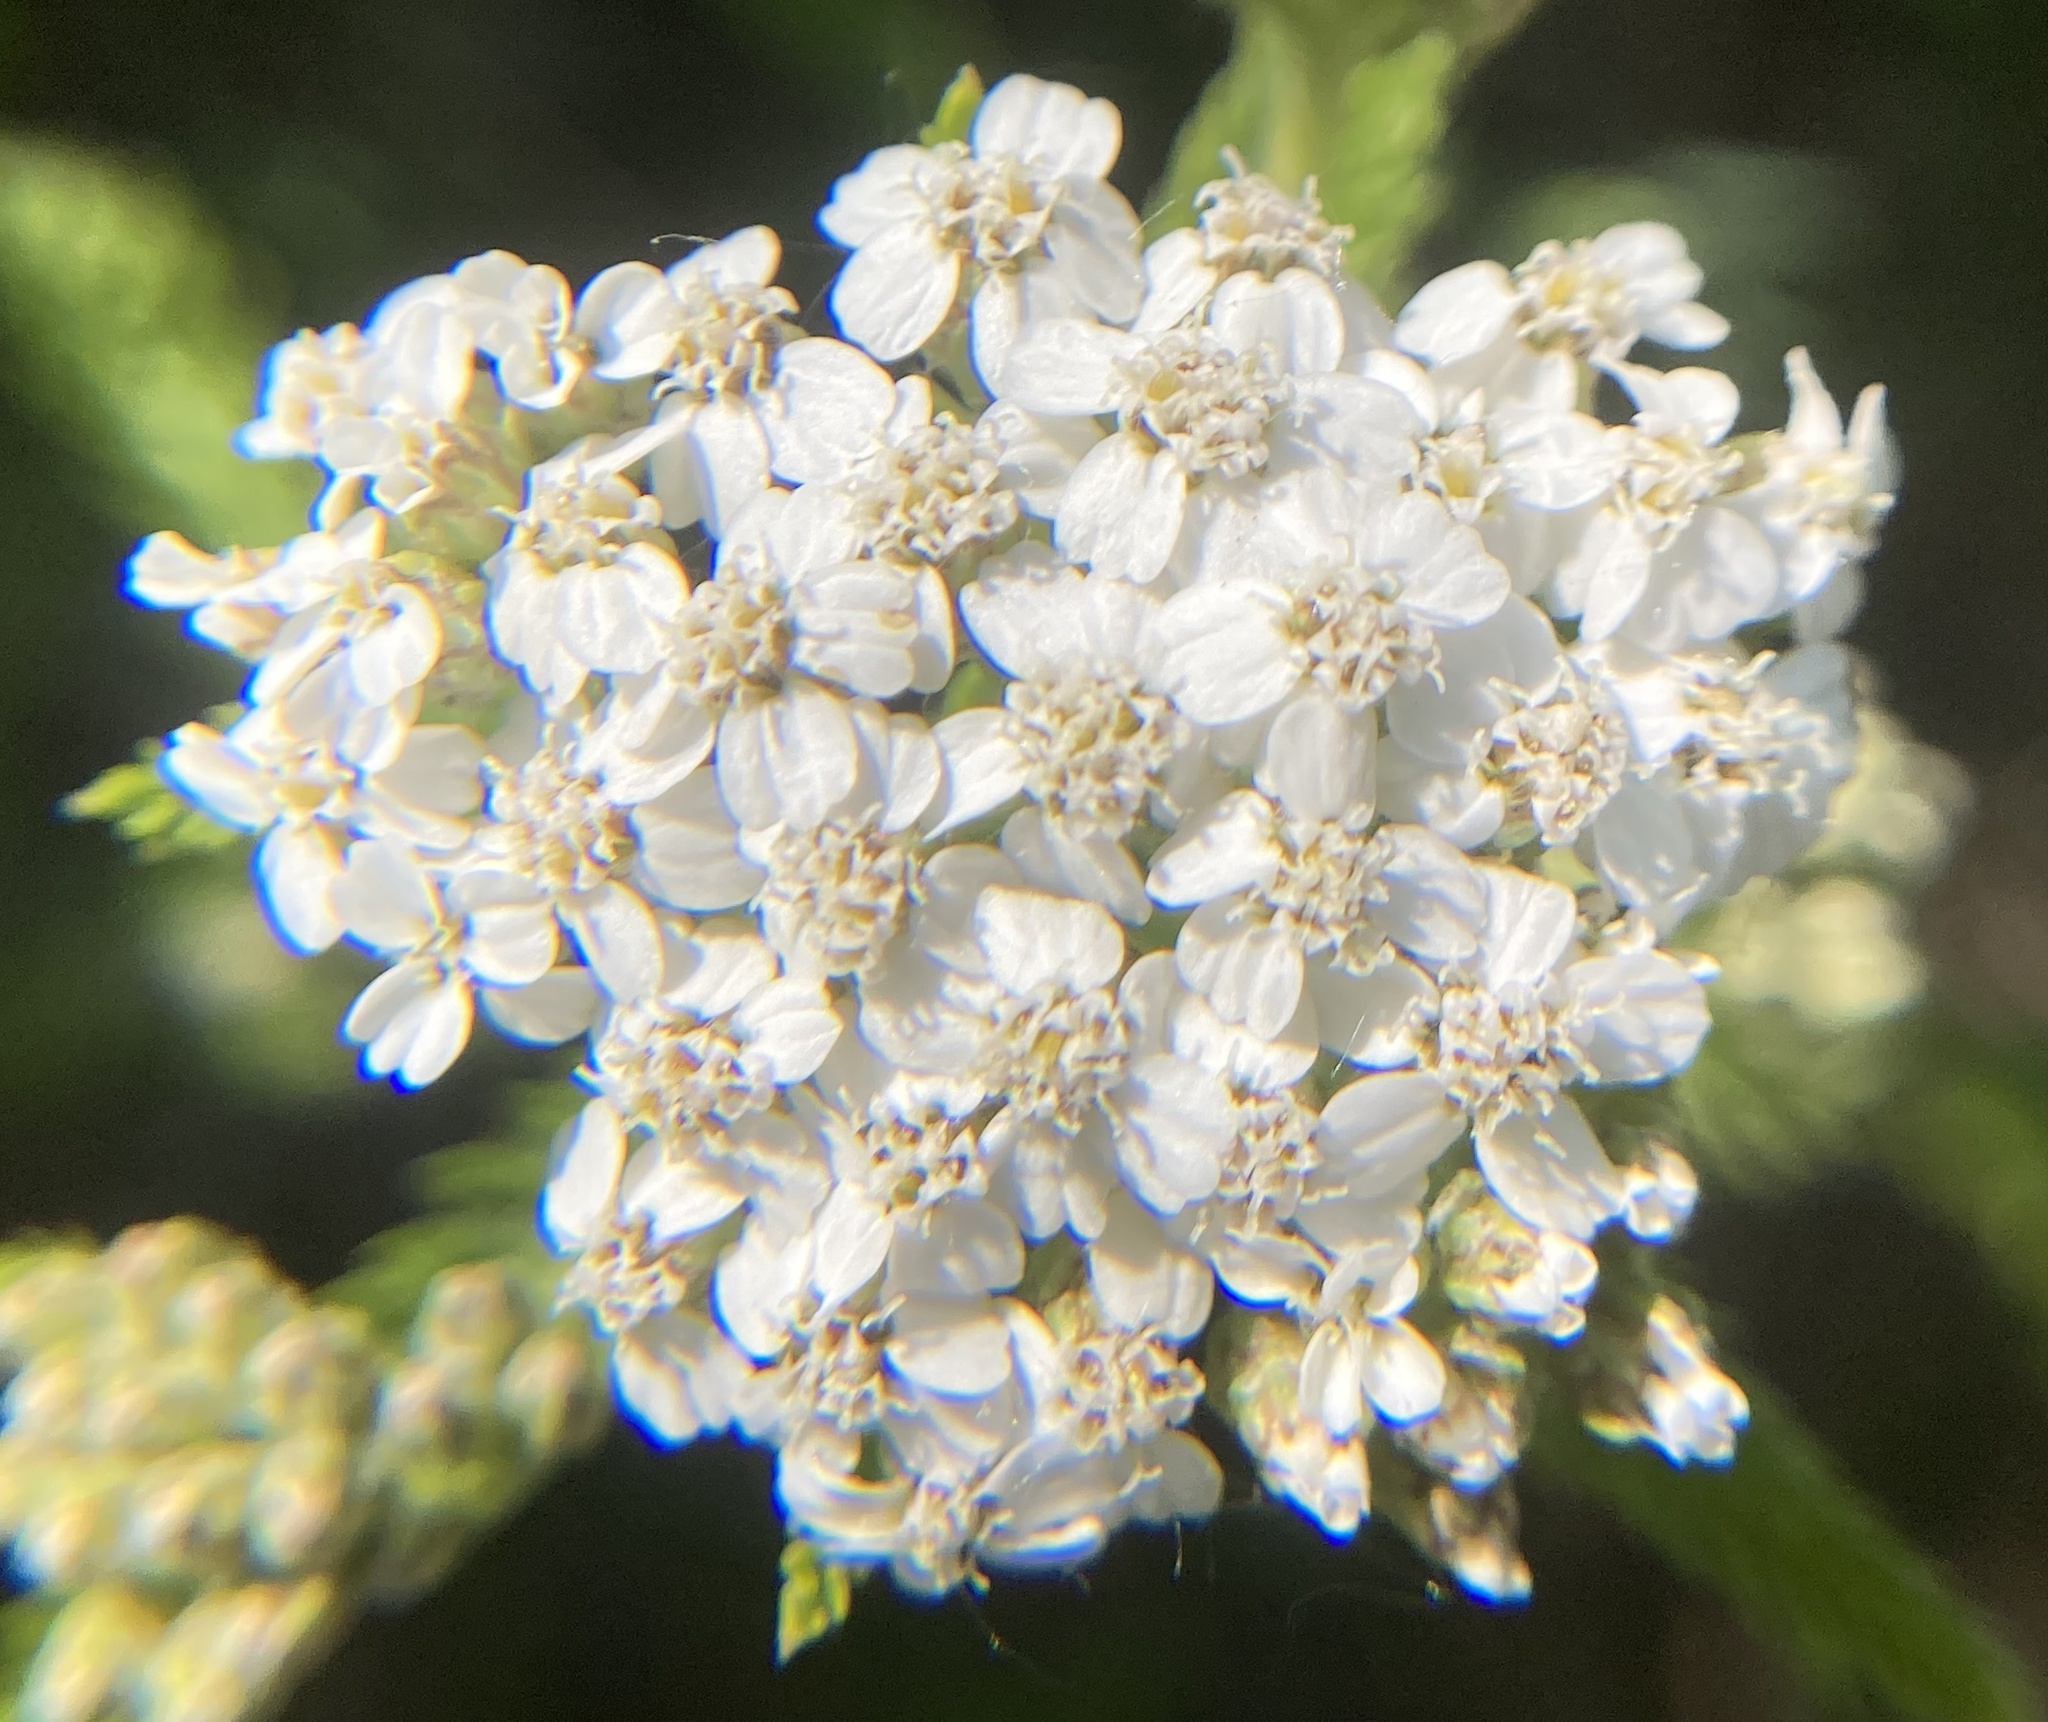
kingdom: Plantae
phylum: Tracheophyta
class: Magnoliopsida
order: Asterales
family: Asteraceae
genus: Achillea
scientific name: Achillea millefolium
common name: Yarrow
